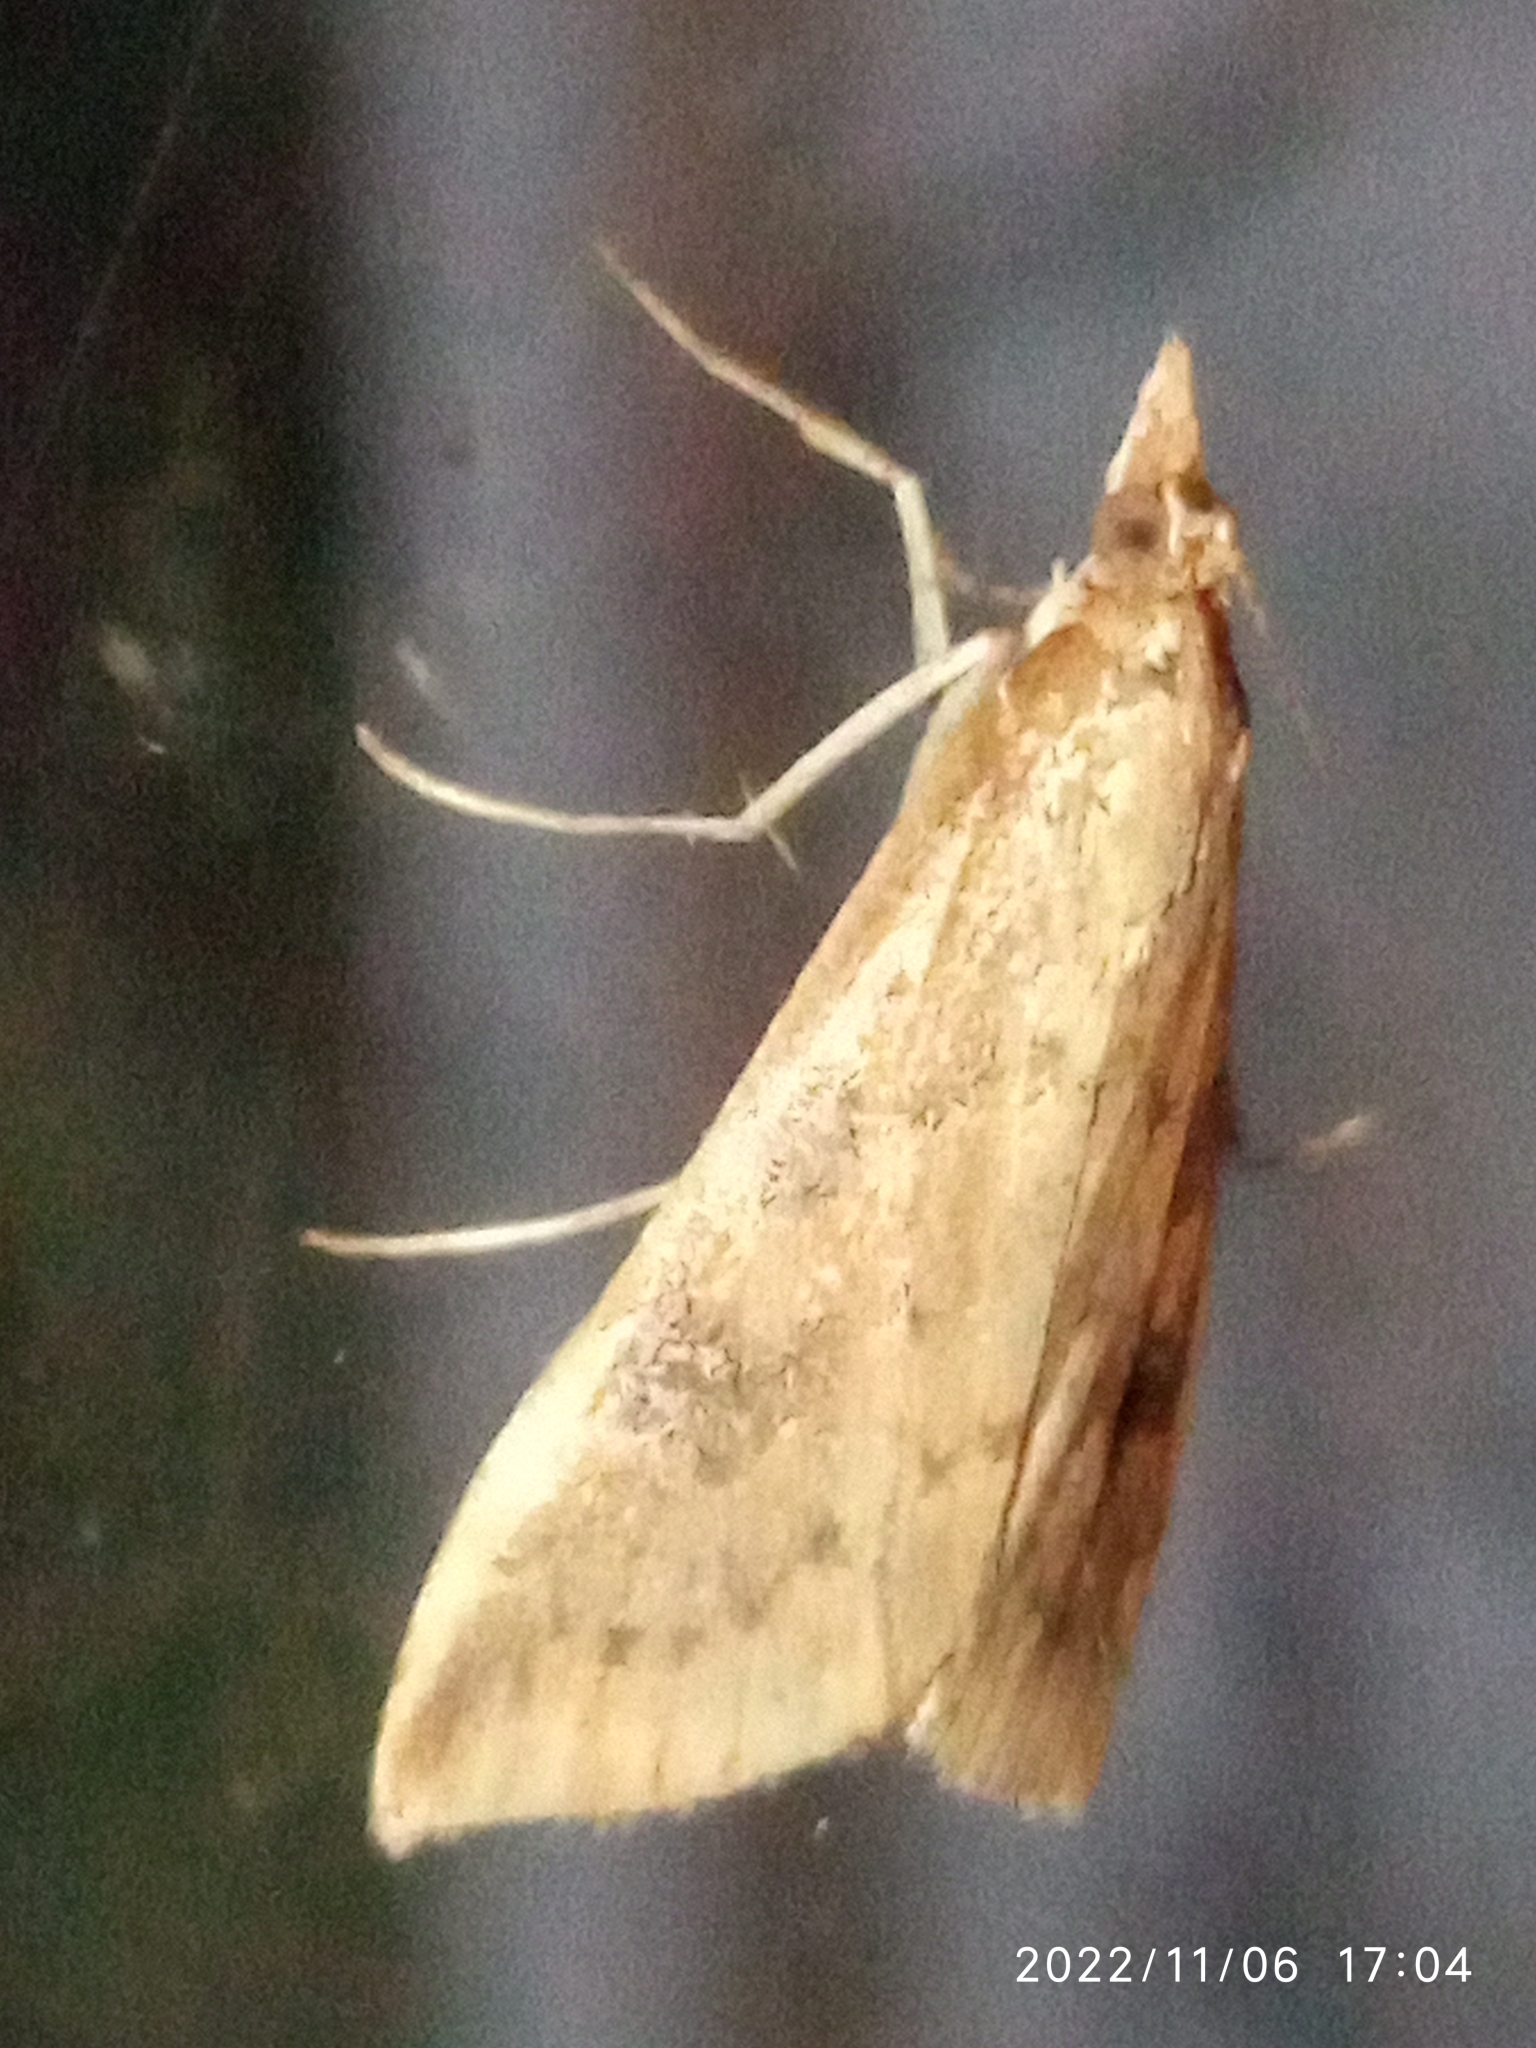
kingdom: Animalia
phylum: Arthropoda
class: Insecta
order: Lepidoptera
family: Crambidae
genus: Udea
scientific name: Udea ferrugalis
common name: Rusty dot
